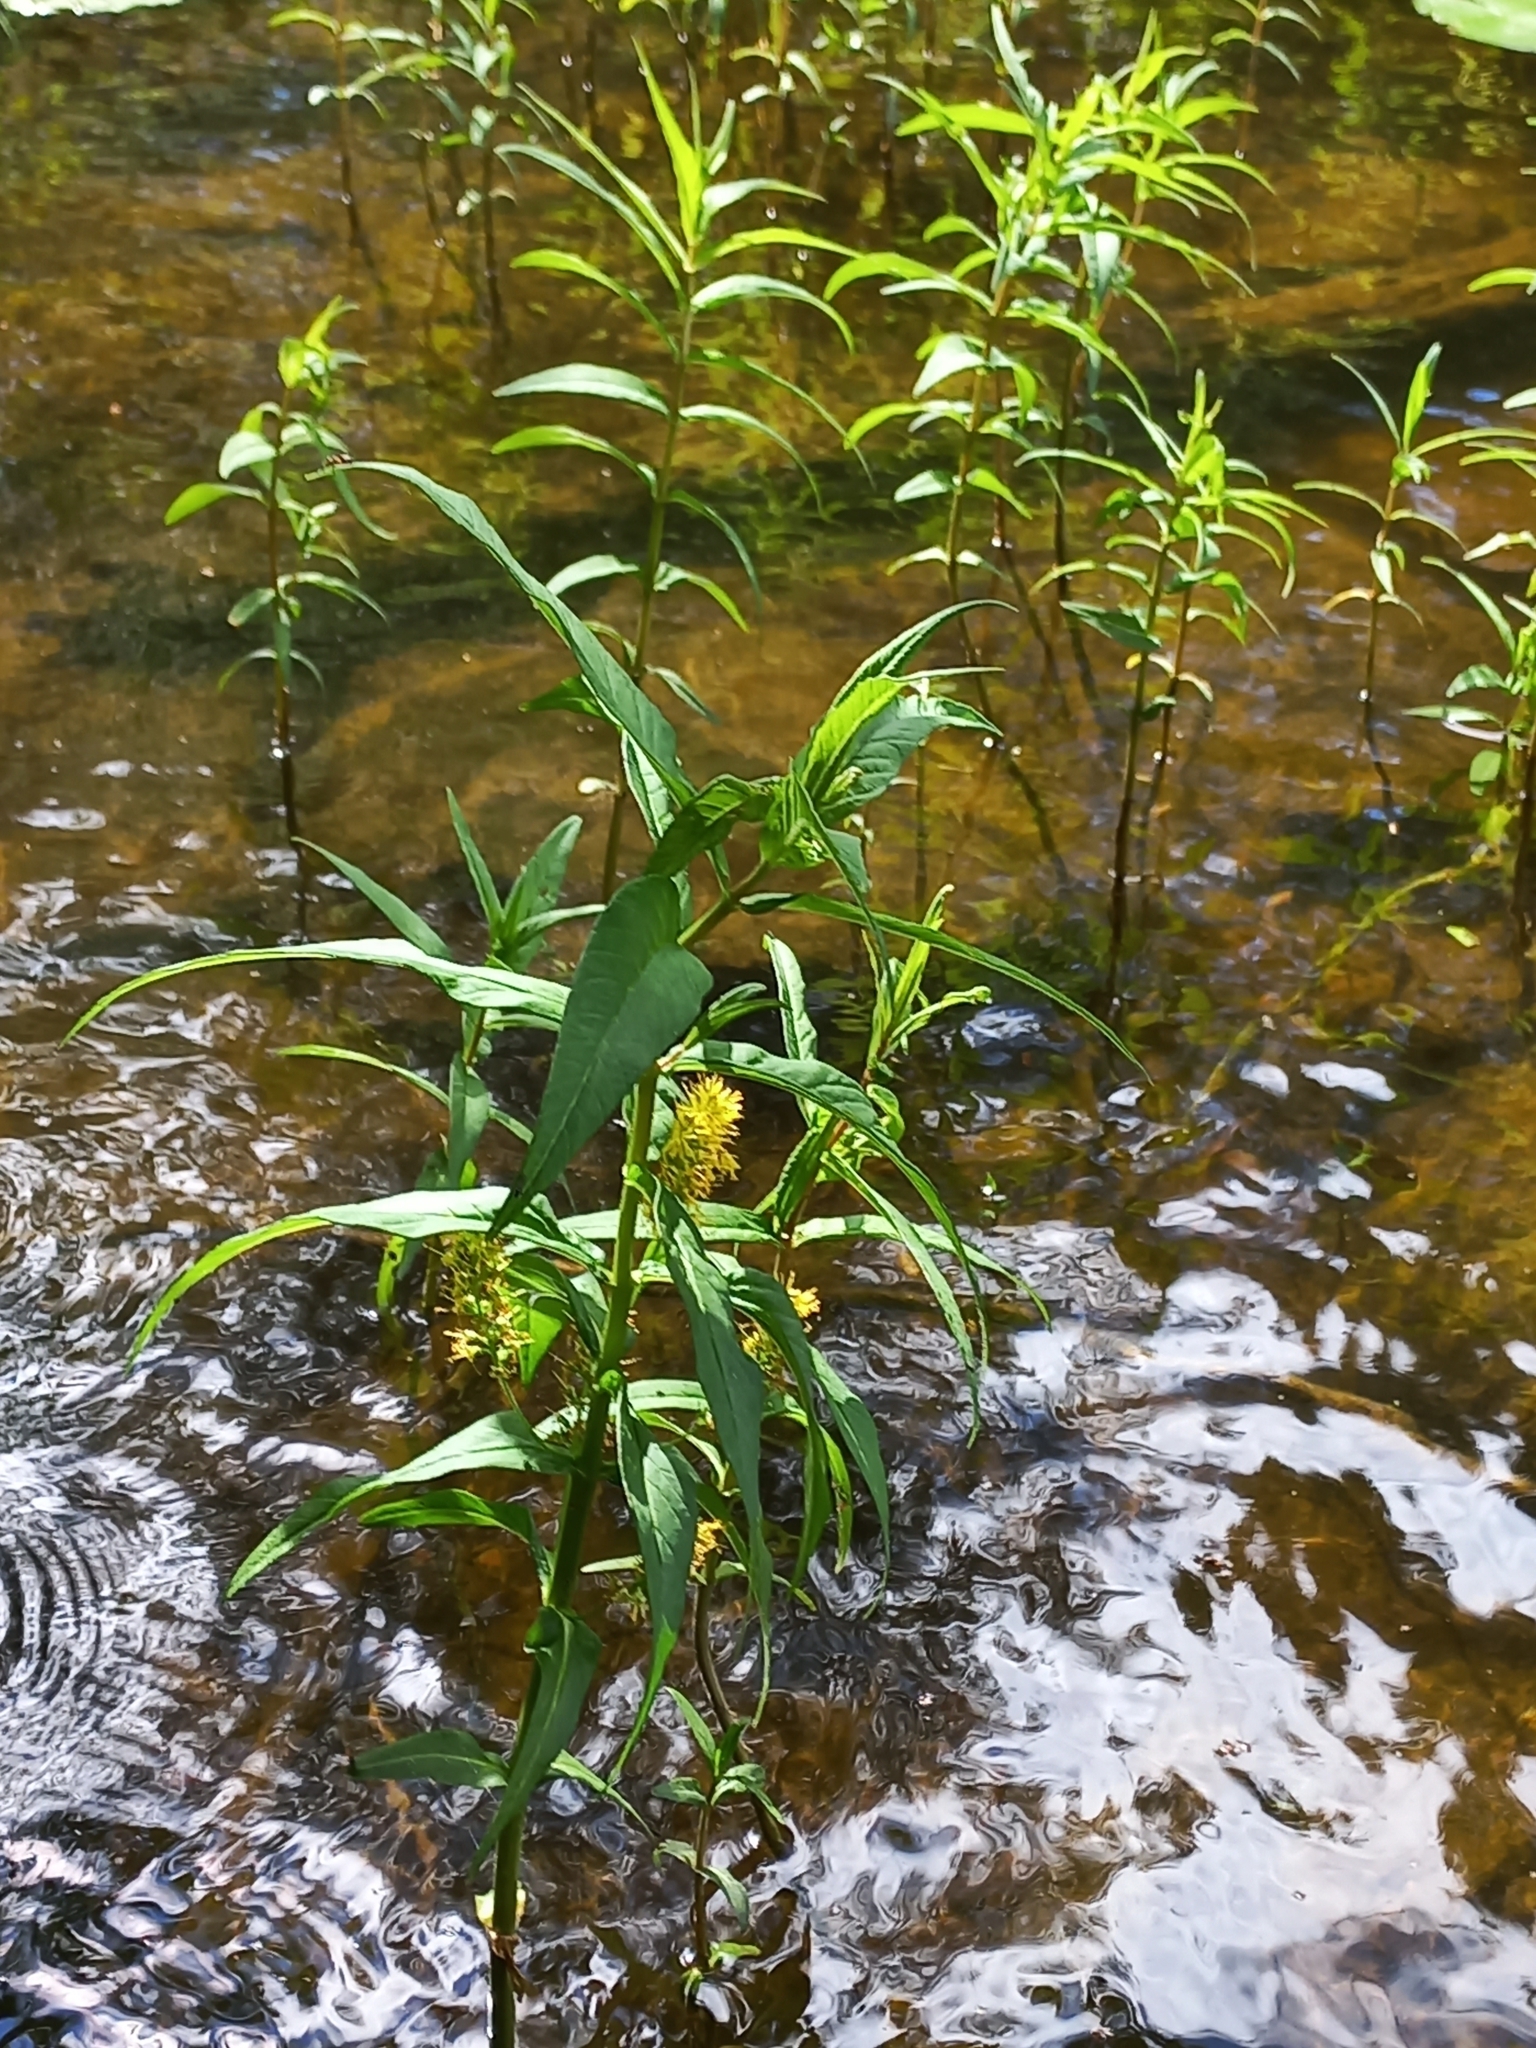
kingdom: Plantae
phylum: Tracheophyta
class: Magnoliopsida
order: Ericales
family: Primulaceae
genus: Lysimachia
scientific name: Lysimachia thyrsiflora
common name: Tufted loosestrife
